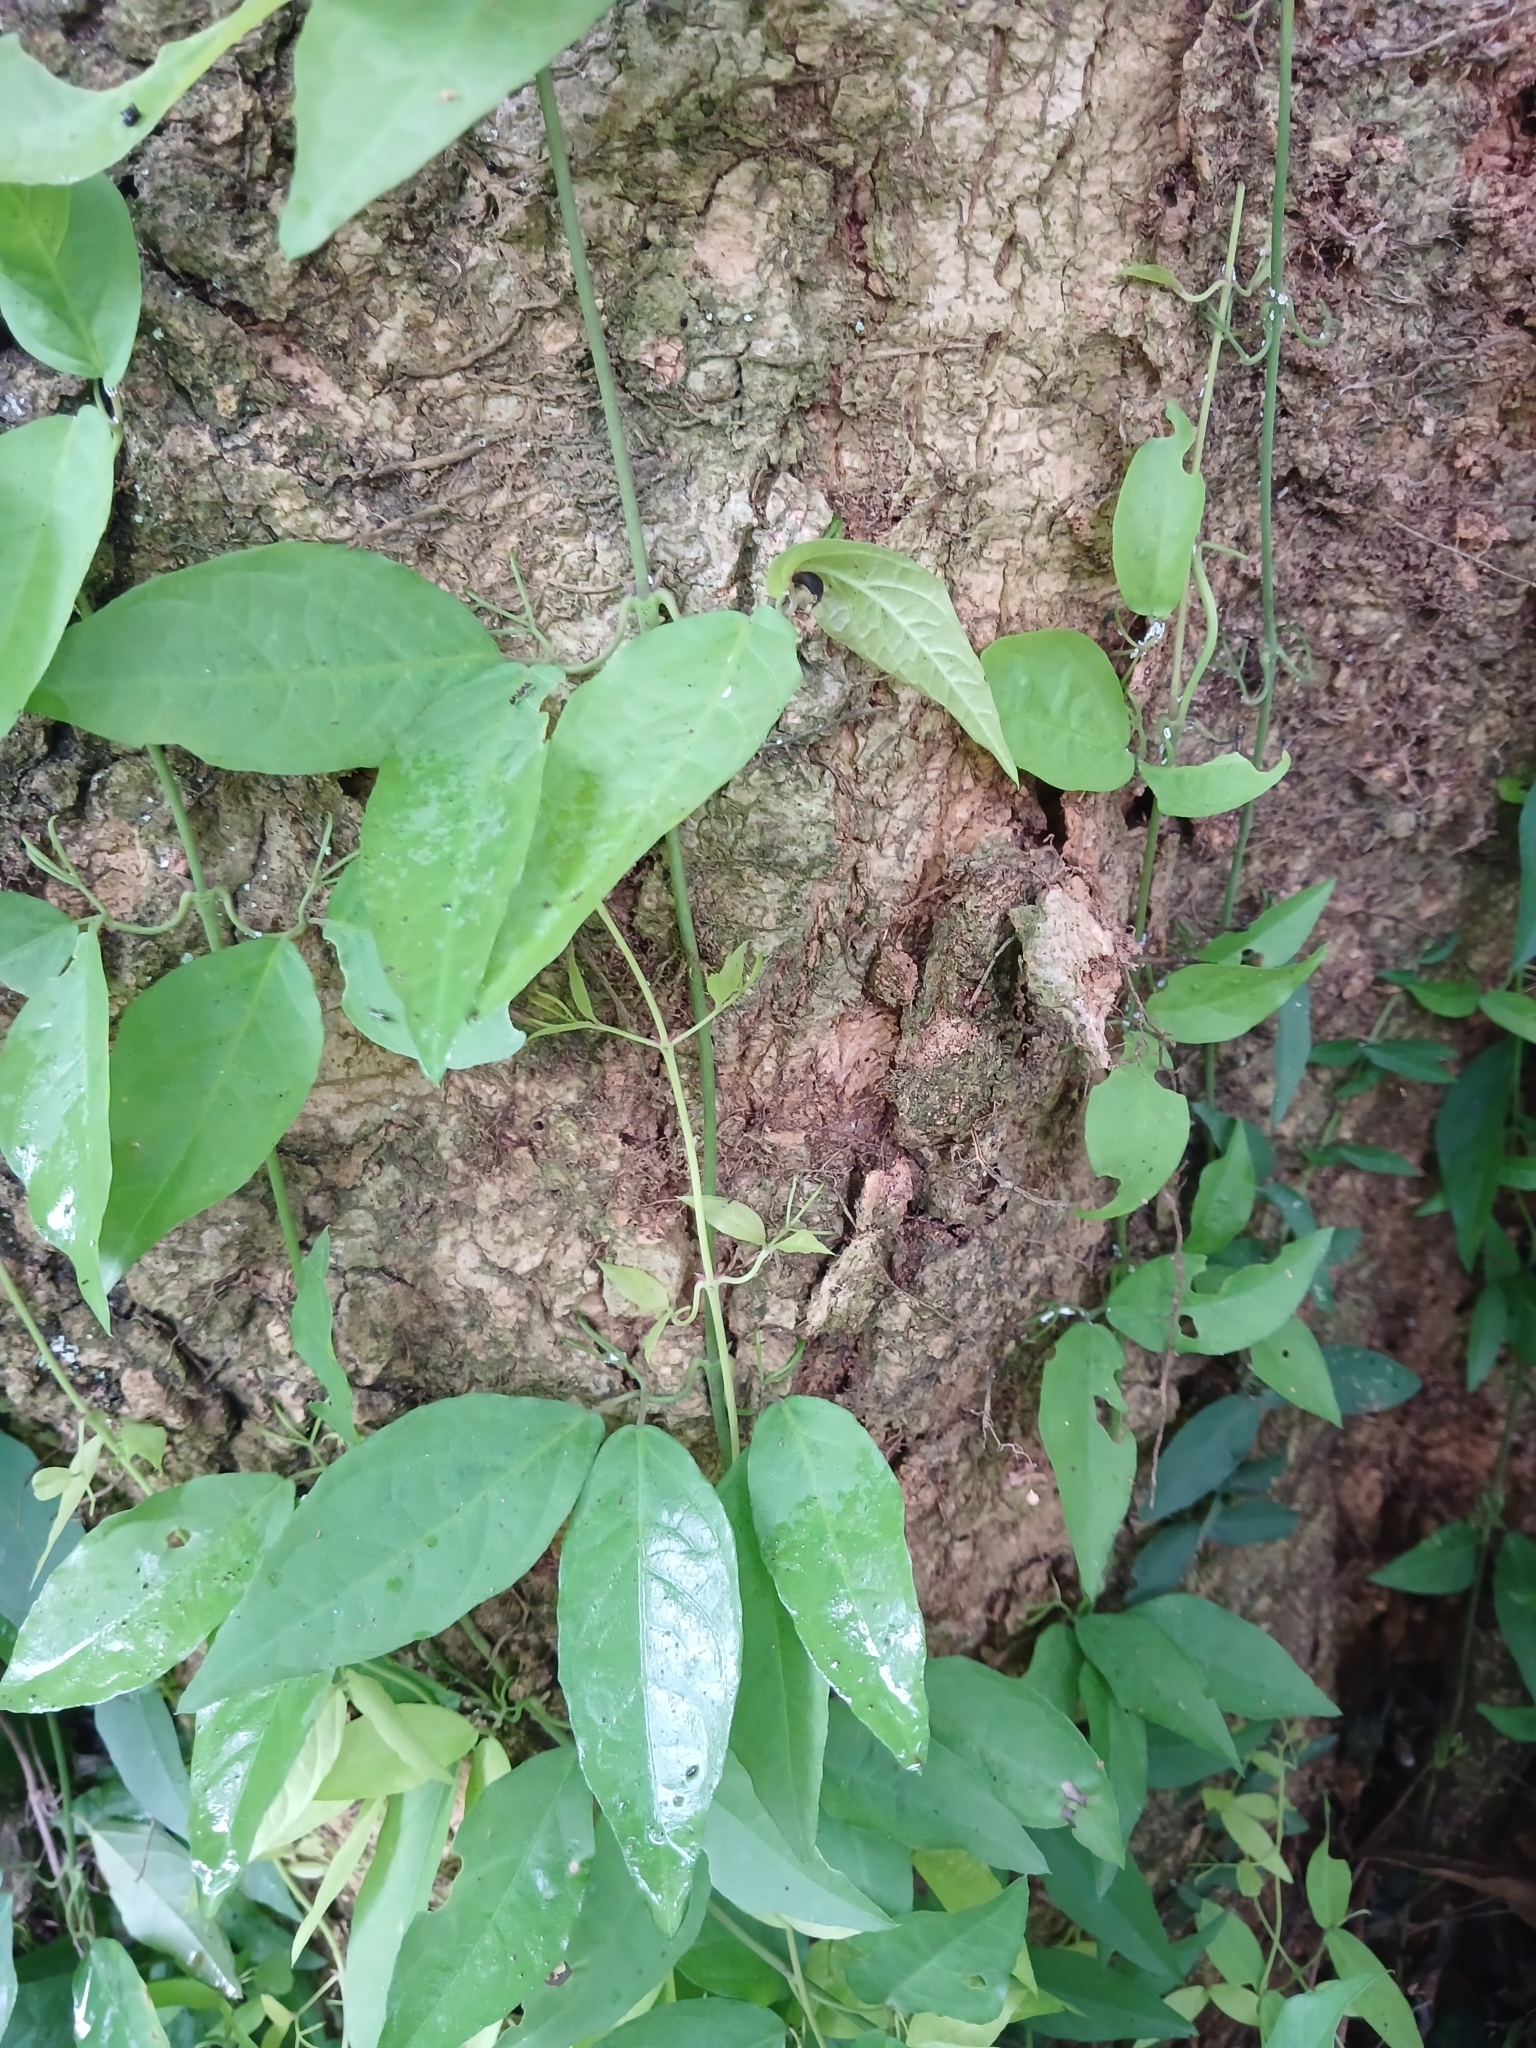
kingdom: Plantae
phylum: Tracheophyta
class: Magnoliopsida
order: Lamiales
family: Bignoniaceae
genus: Dolichandra
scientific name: Dolichandra unguis-cati
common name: Catclaw vine
